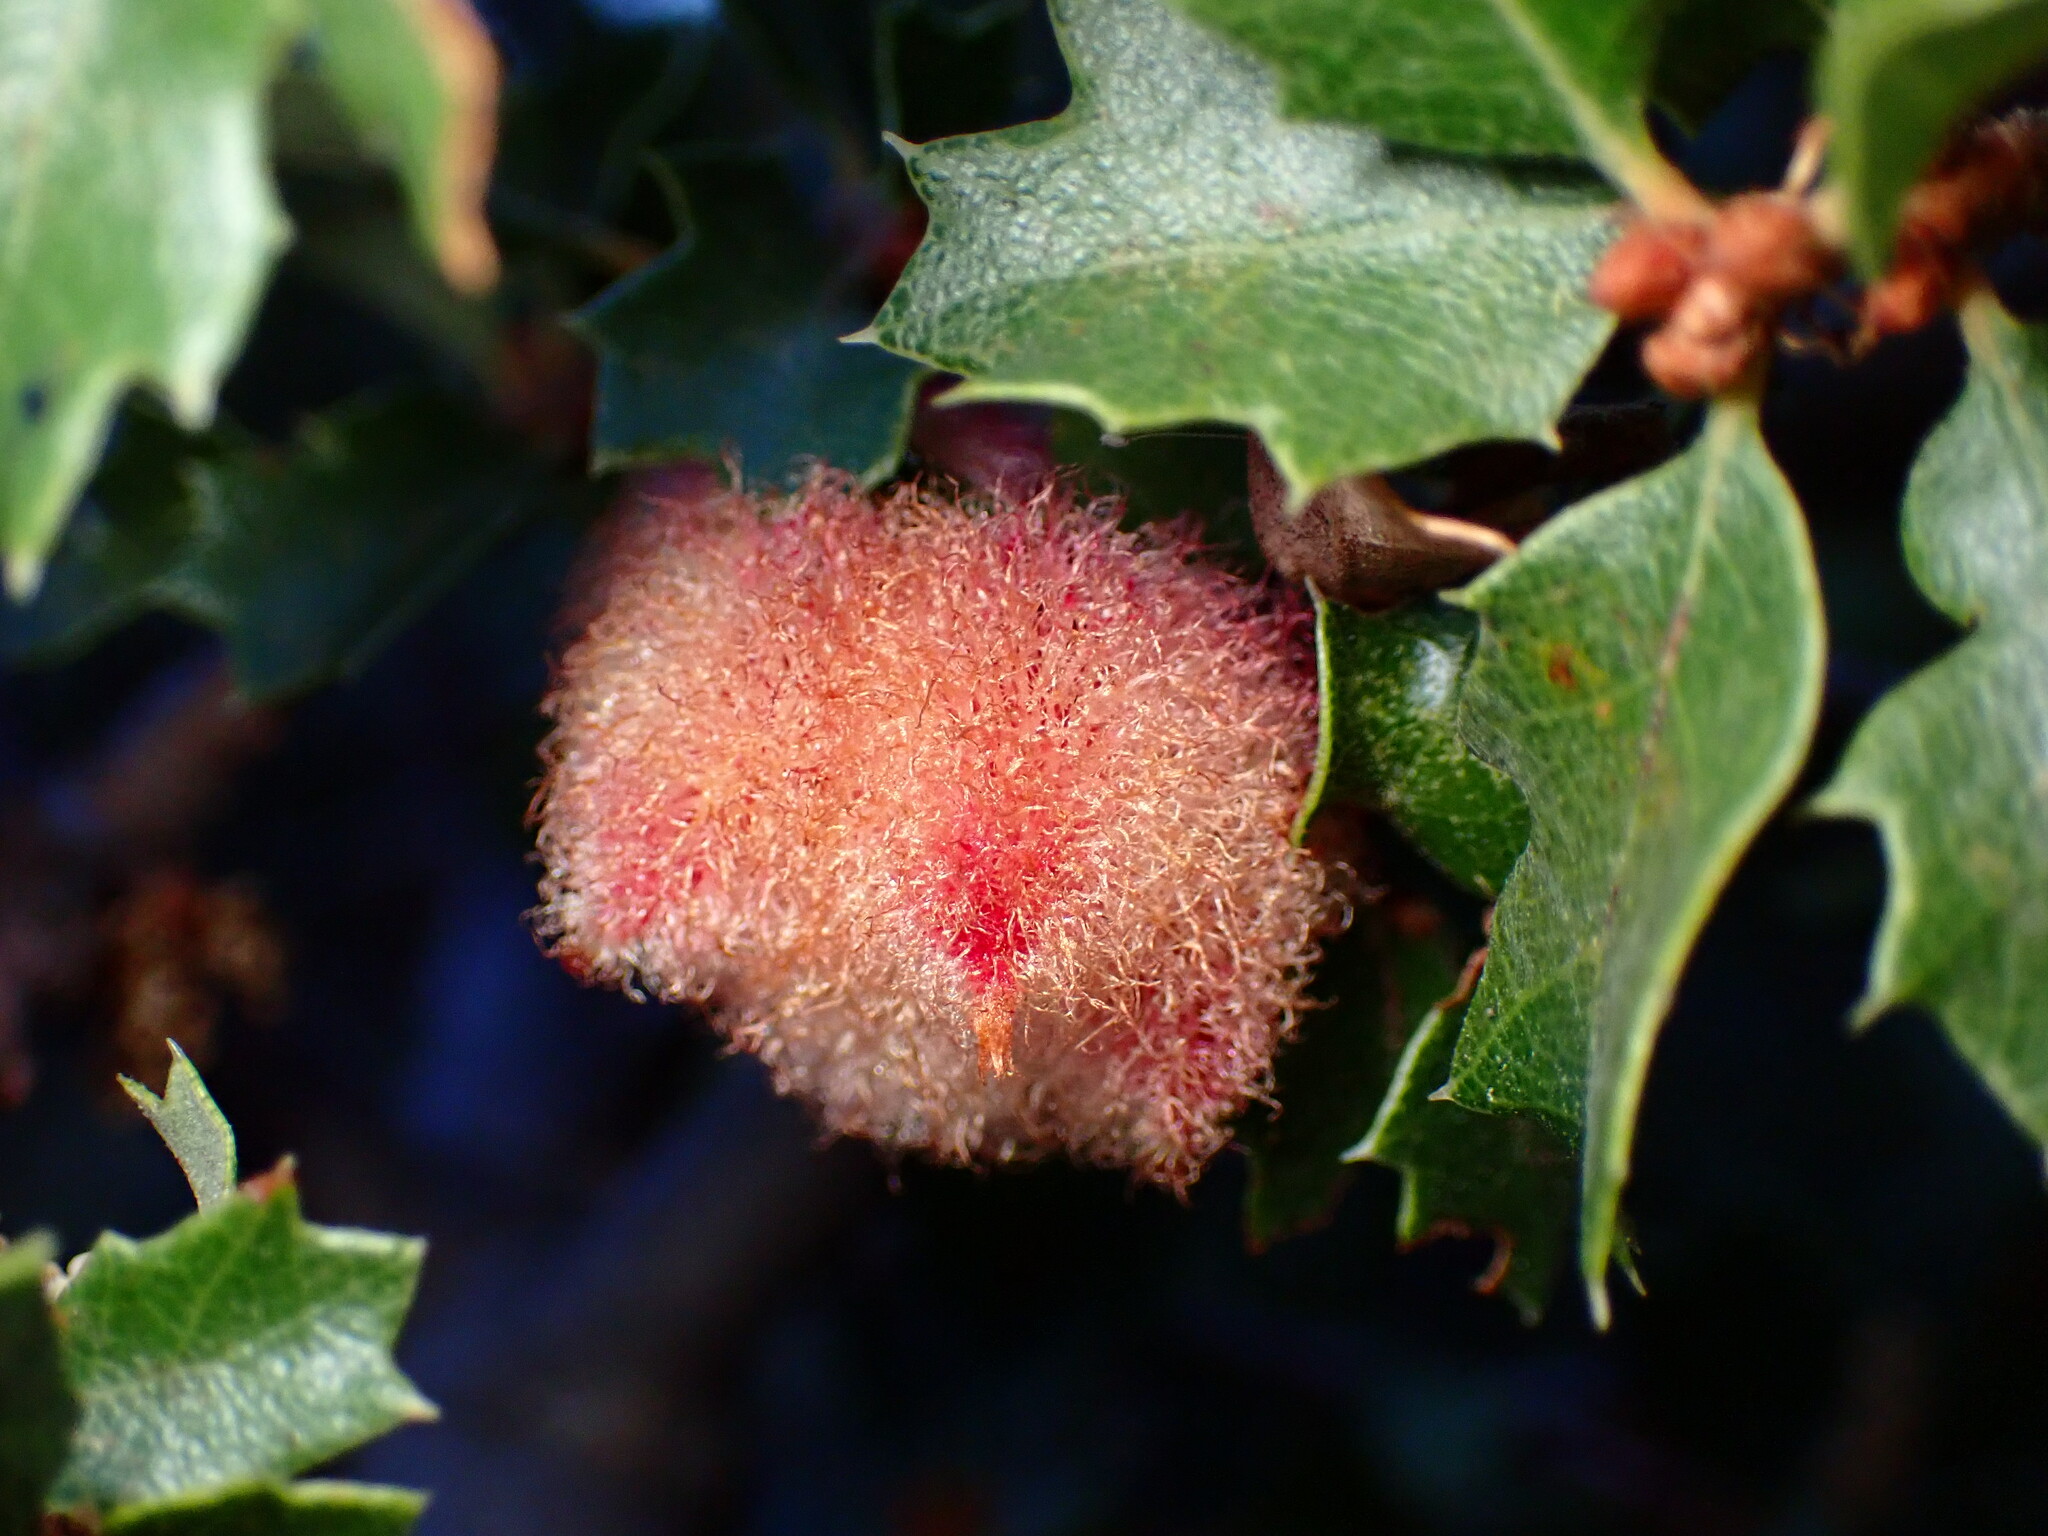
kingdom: Animalia
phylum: Arthropoda
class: Insecta
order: Hymenoptera
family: Cynipidae
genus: Andricus
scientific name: Andricus
